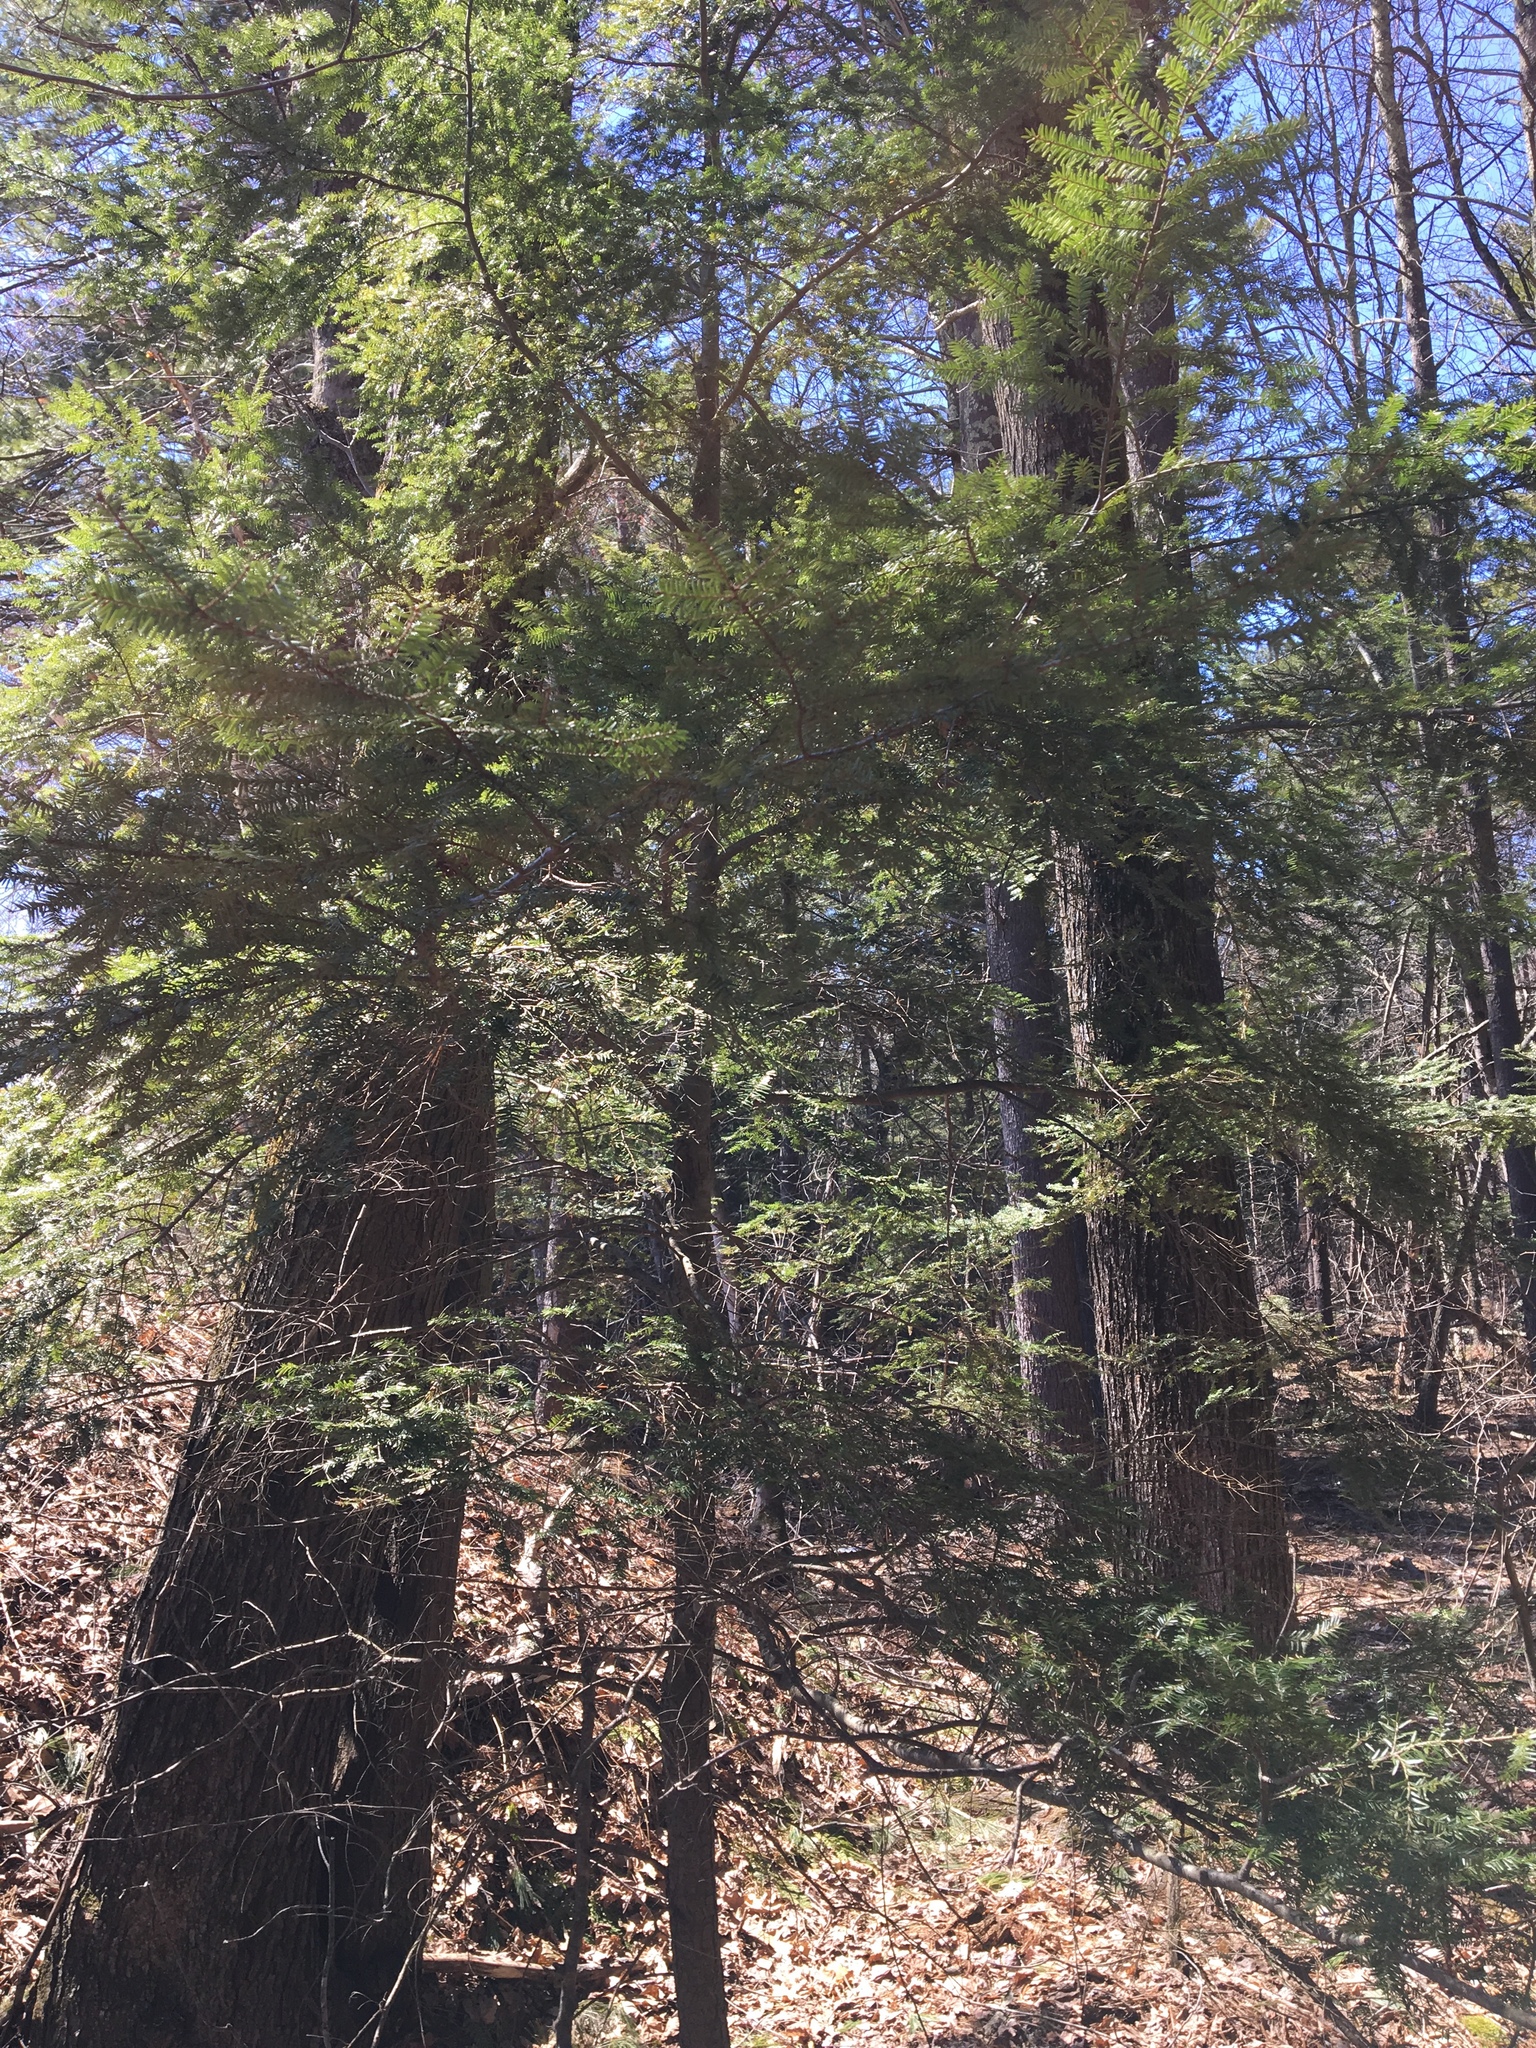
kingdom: Plantae
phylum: Tracheophyta
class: Pinopsida
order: Pinales
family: Pinaceae
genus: Tsuga
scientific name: Tsuga canadensis
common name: Eastern hemlock
